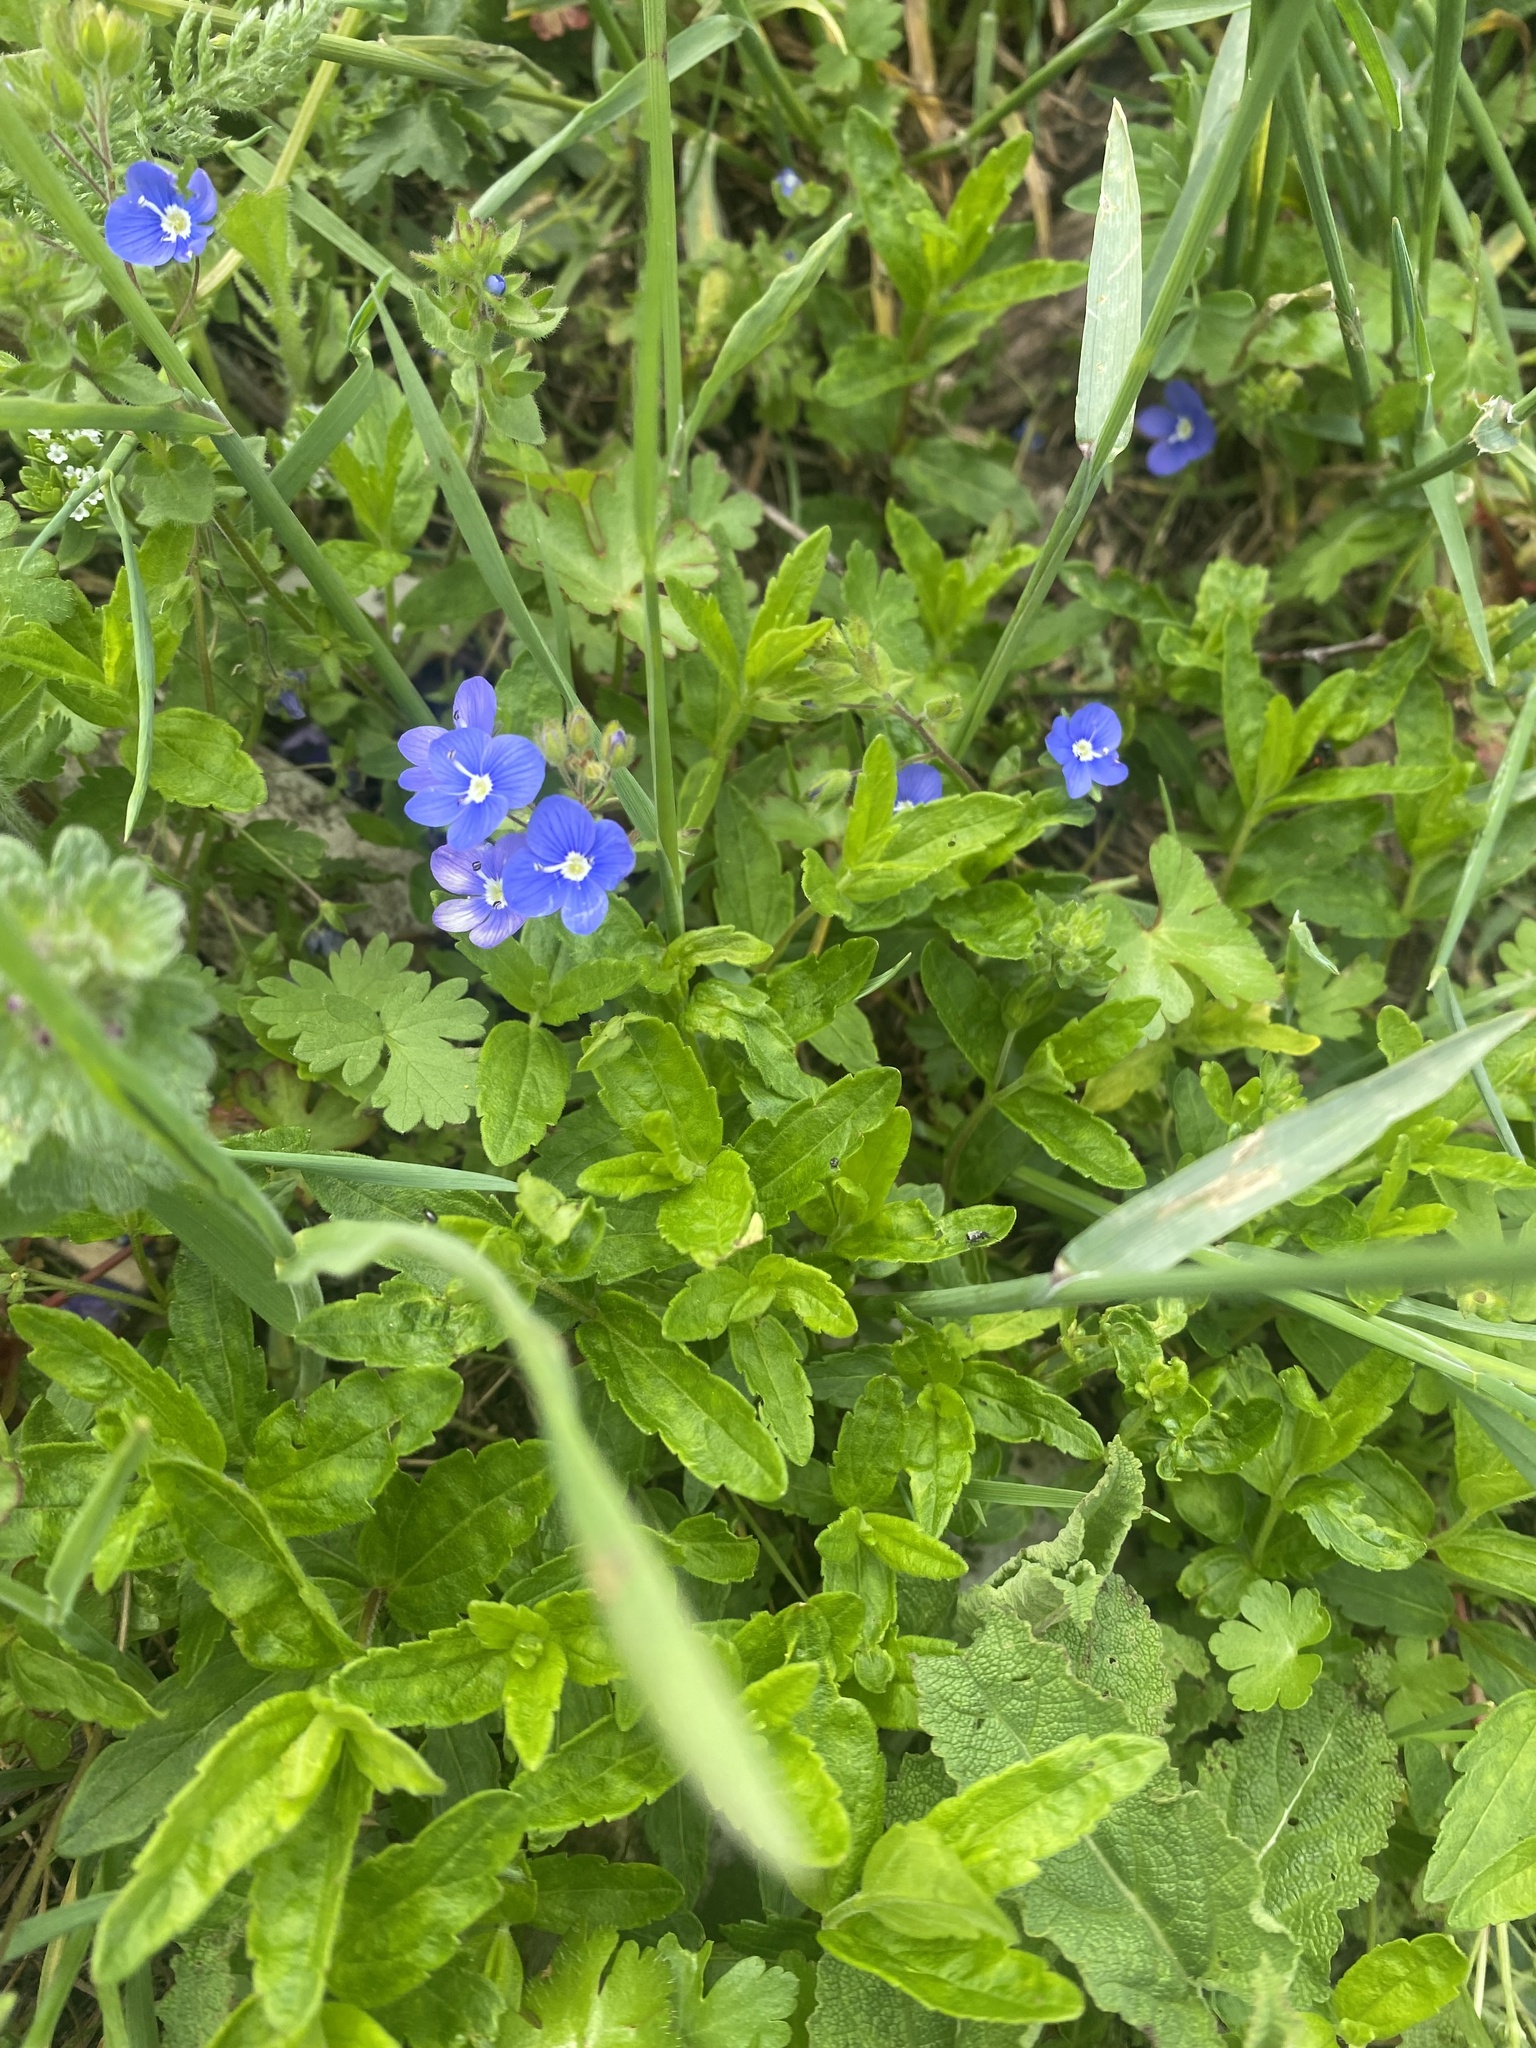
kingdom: Plantae
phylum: Tracheophyta
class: Magnoliopsida
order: Lamiales
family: Plantaginaceae
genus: Veronica
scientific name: Veronica
